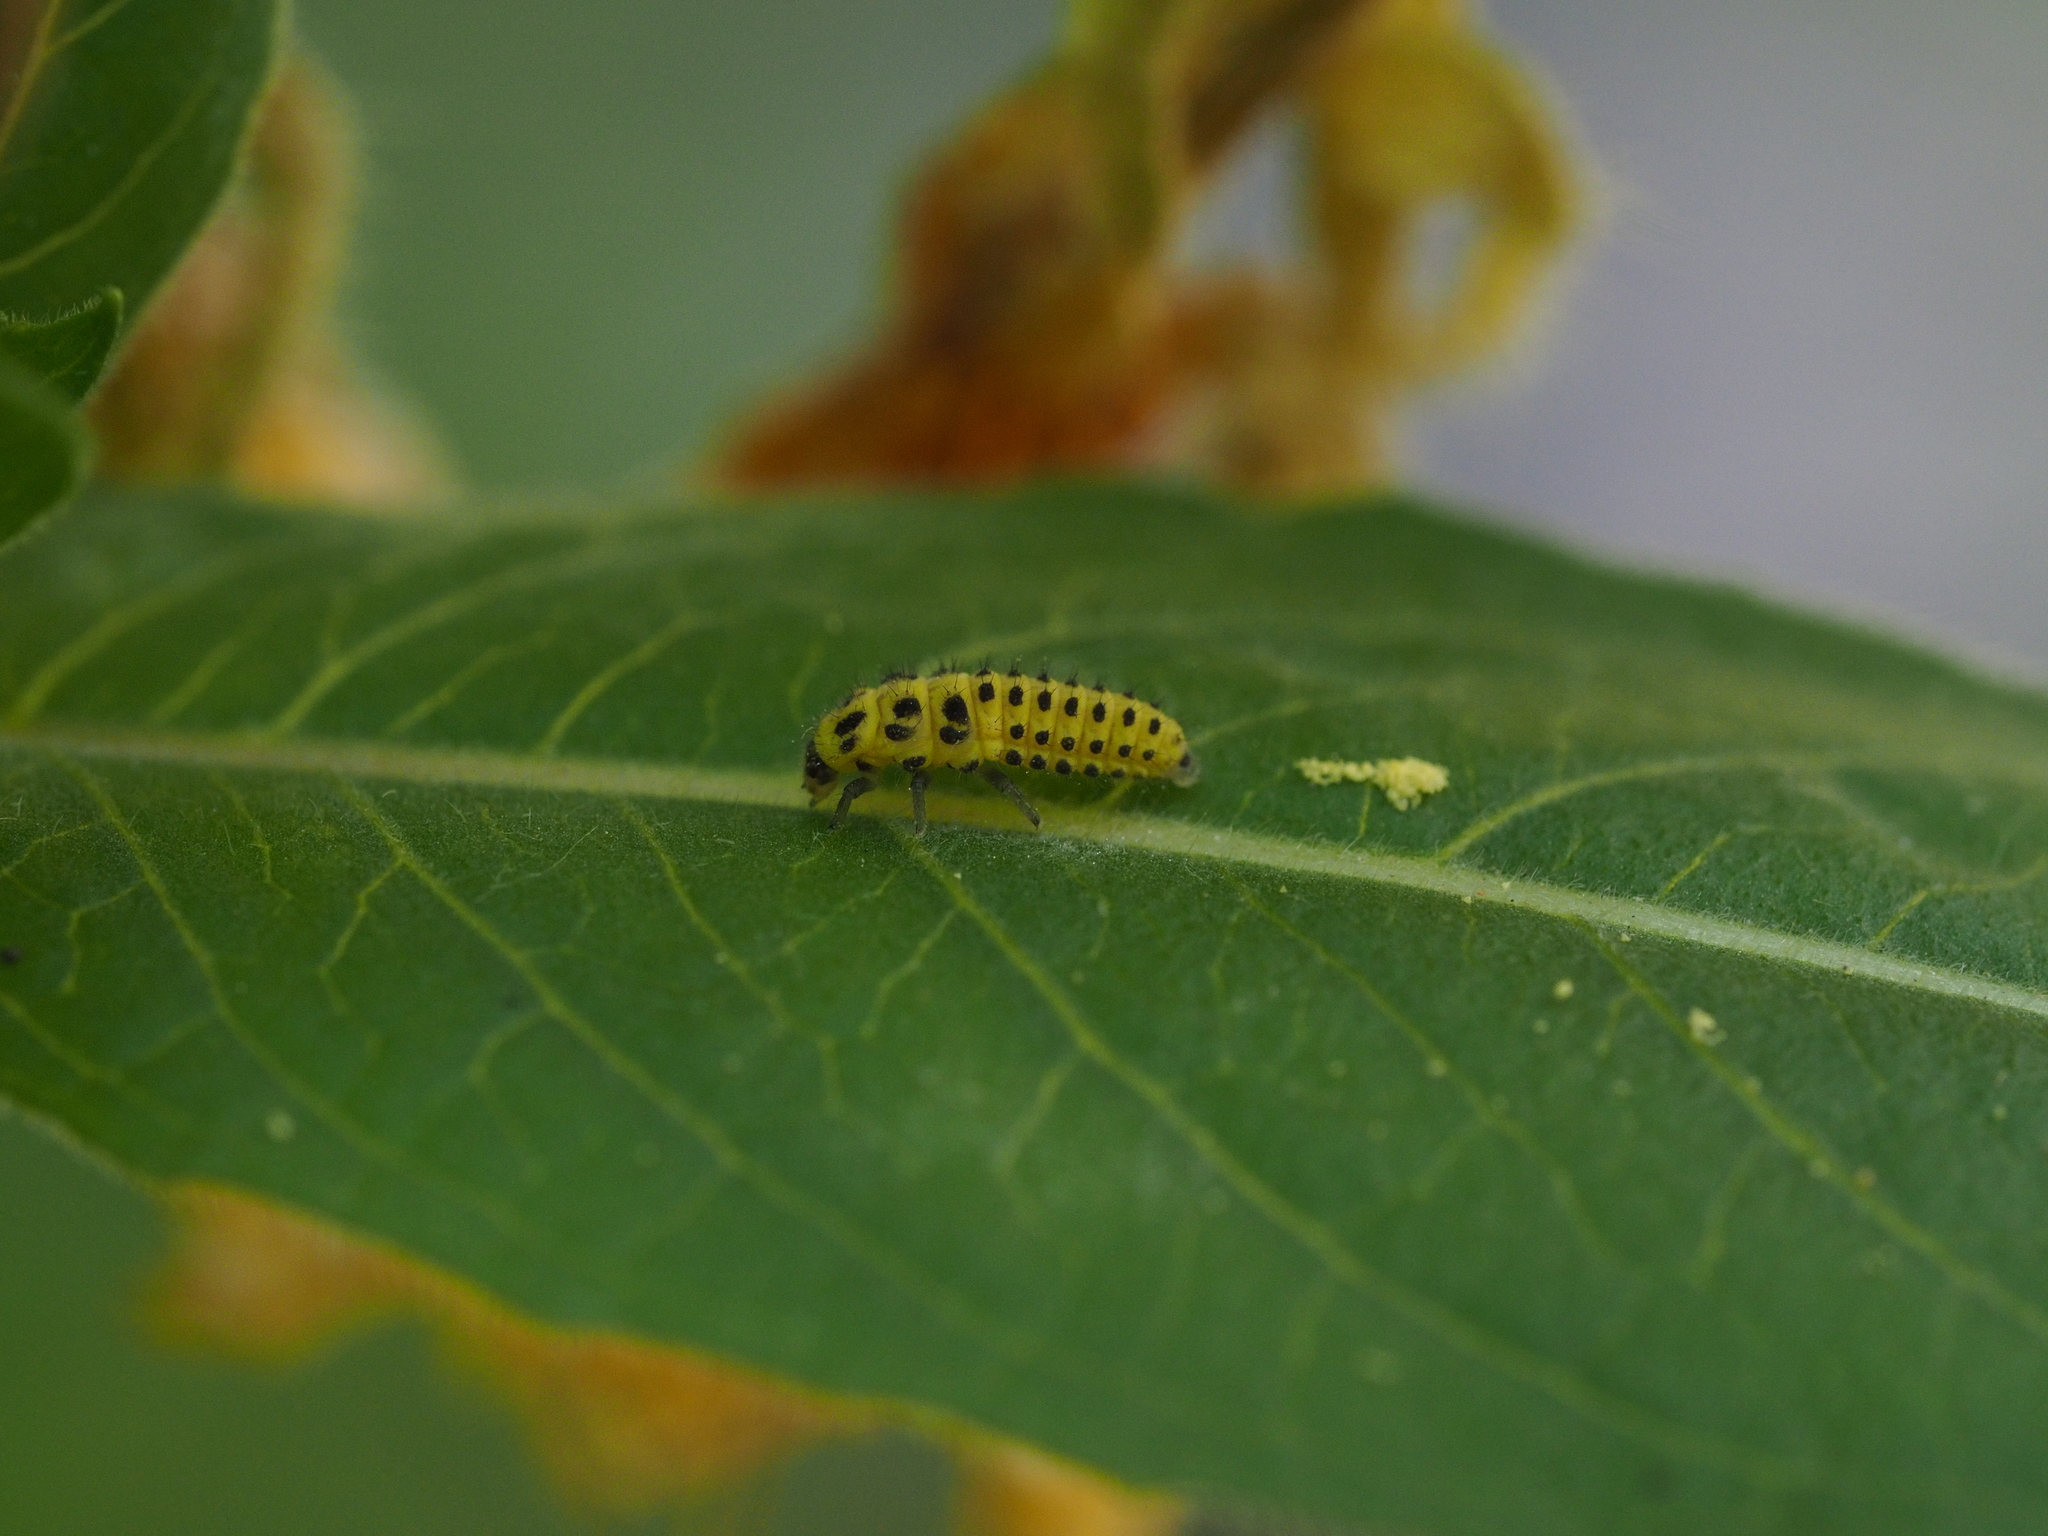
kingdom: Animalia
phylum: Arthropoda
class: Insecta
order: Coleoptera
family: Coccinellidae
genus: Psyllobora
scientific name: Psyllobora vigintiduopunctata
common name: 22-spot ladybird
